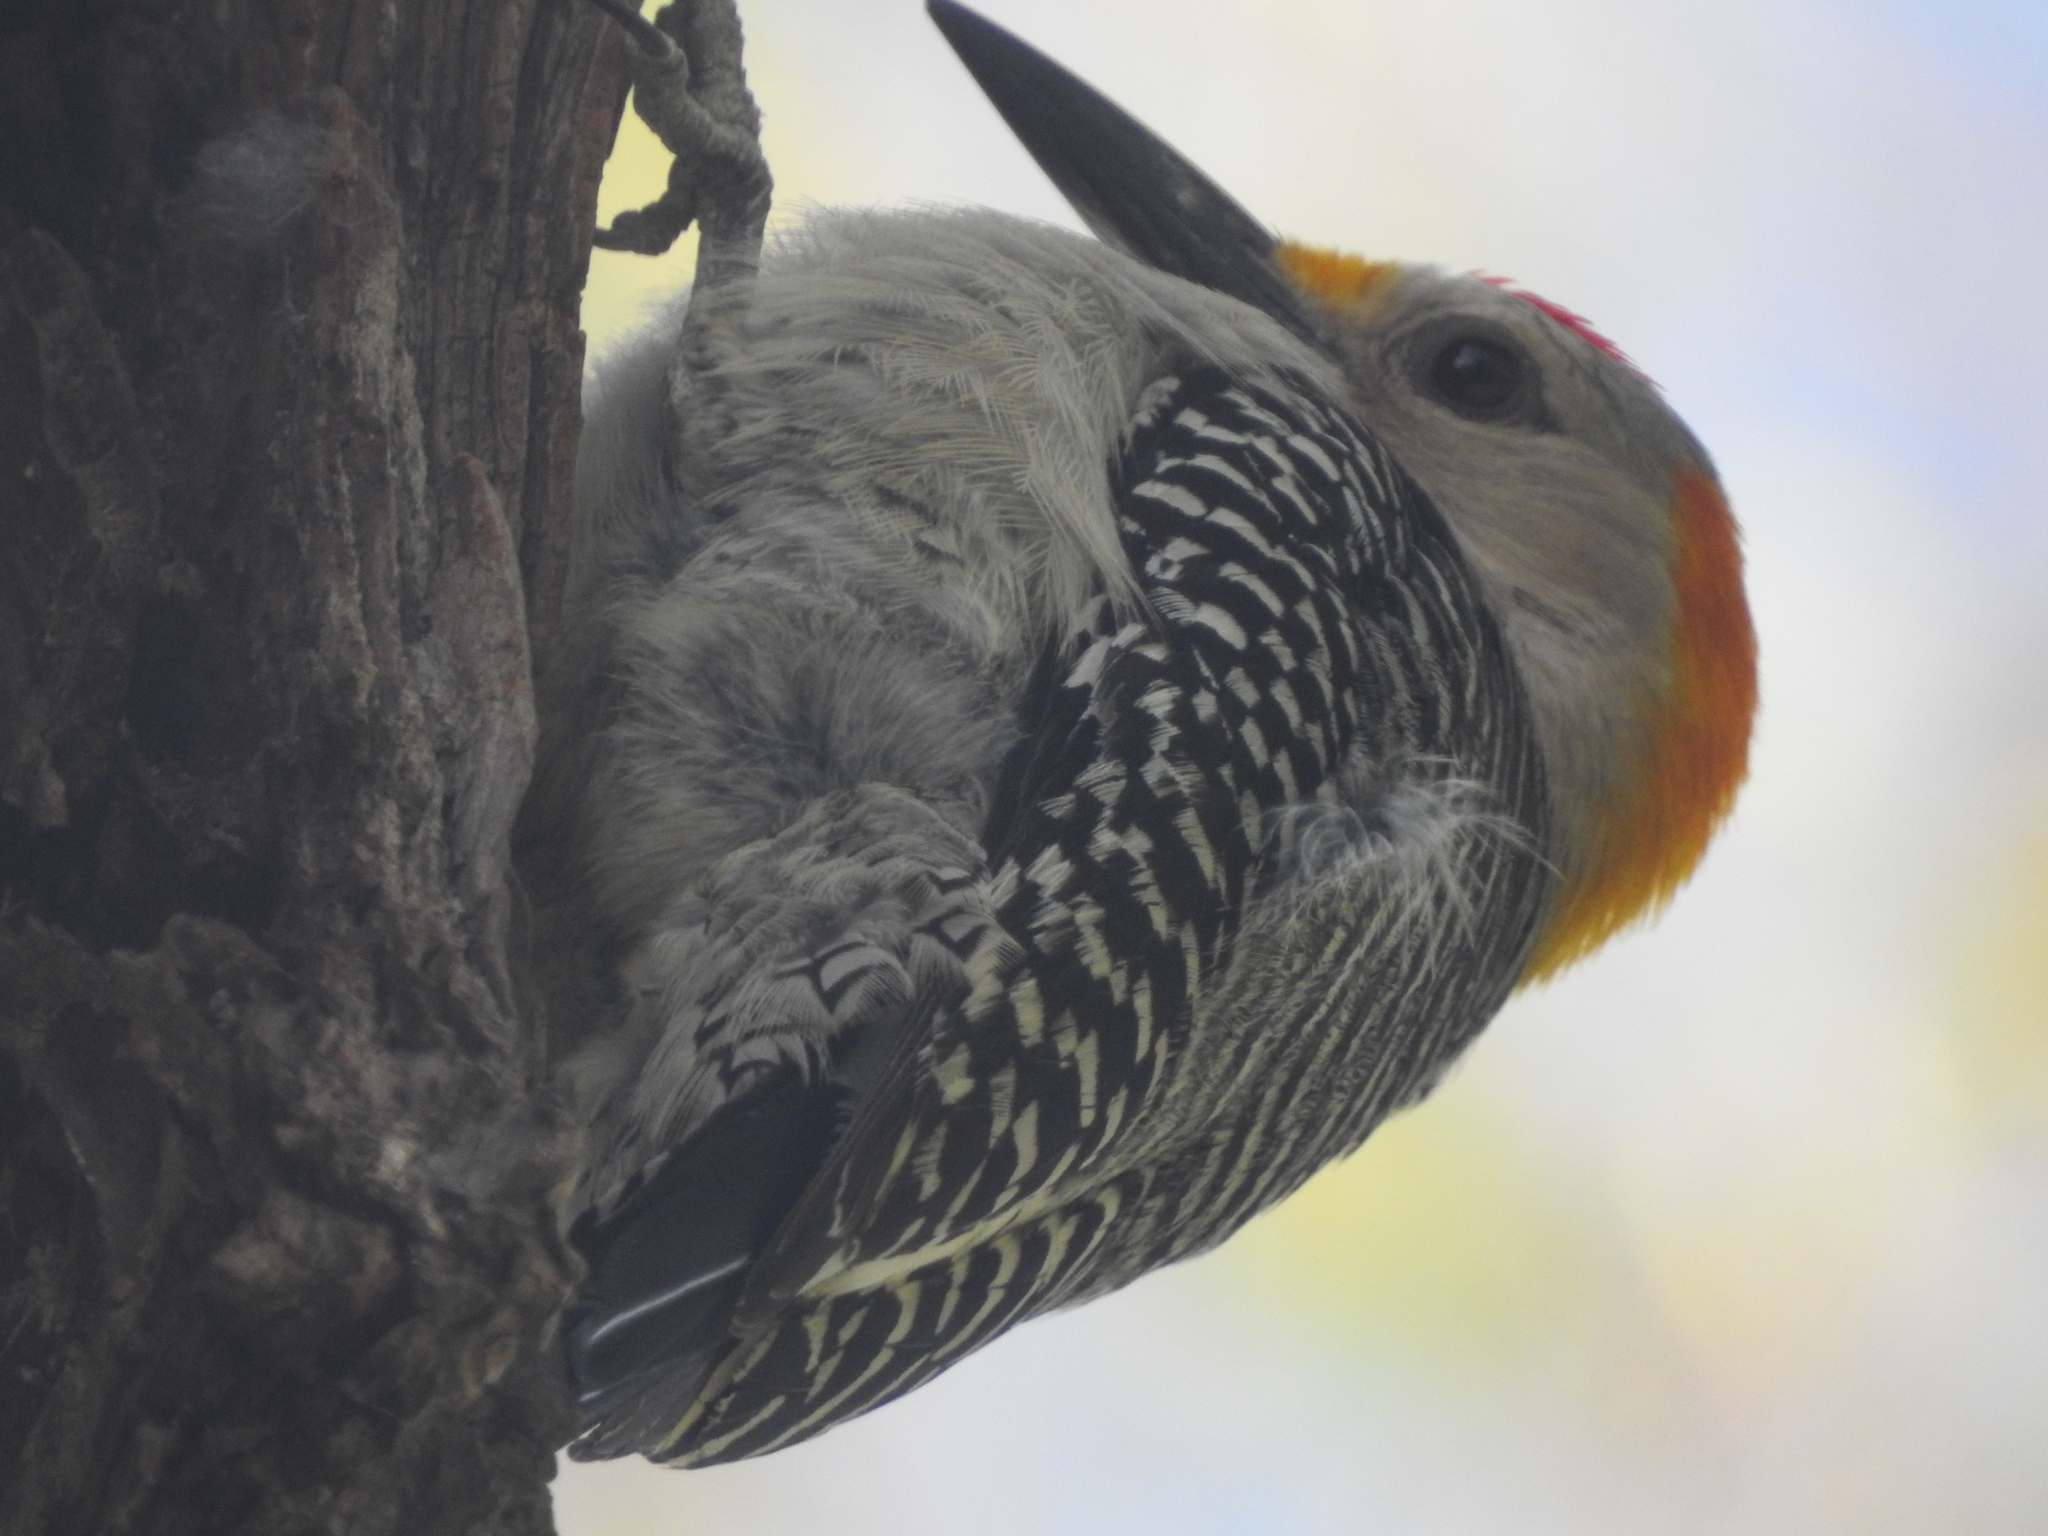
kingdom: Animalia
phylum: Chordata
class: Aves
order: Piciformes
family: Picidae
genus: Melanerpes
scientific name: Melanerpes aurifrons
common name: Golden-fronted woodpecker
